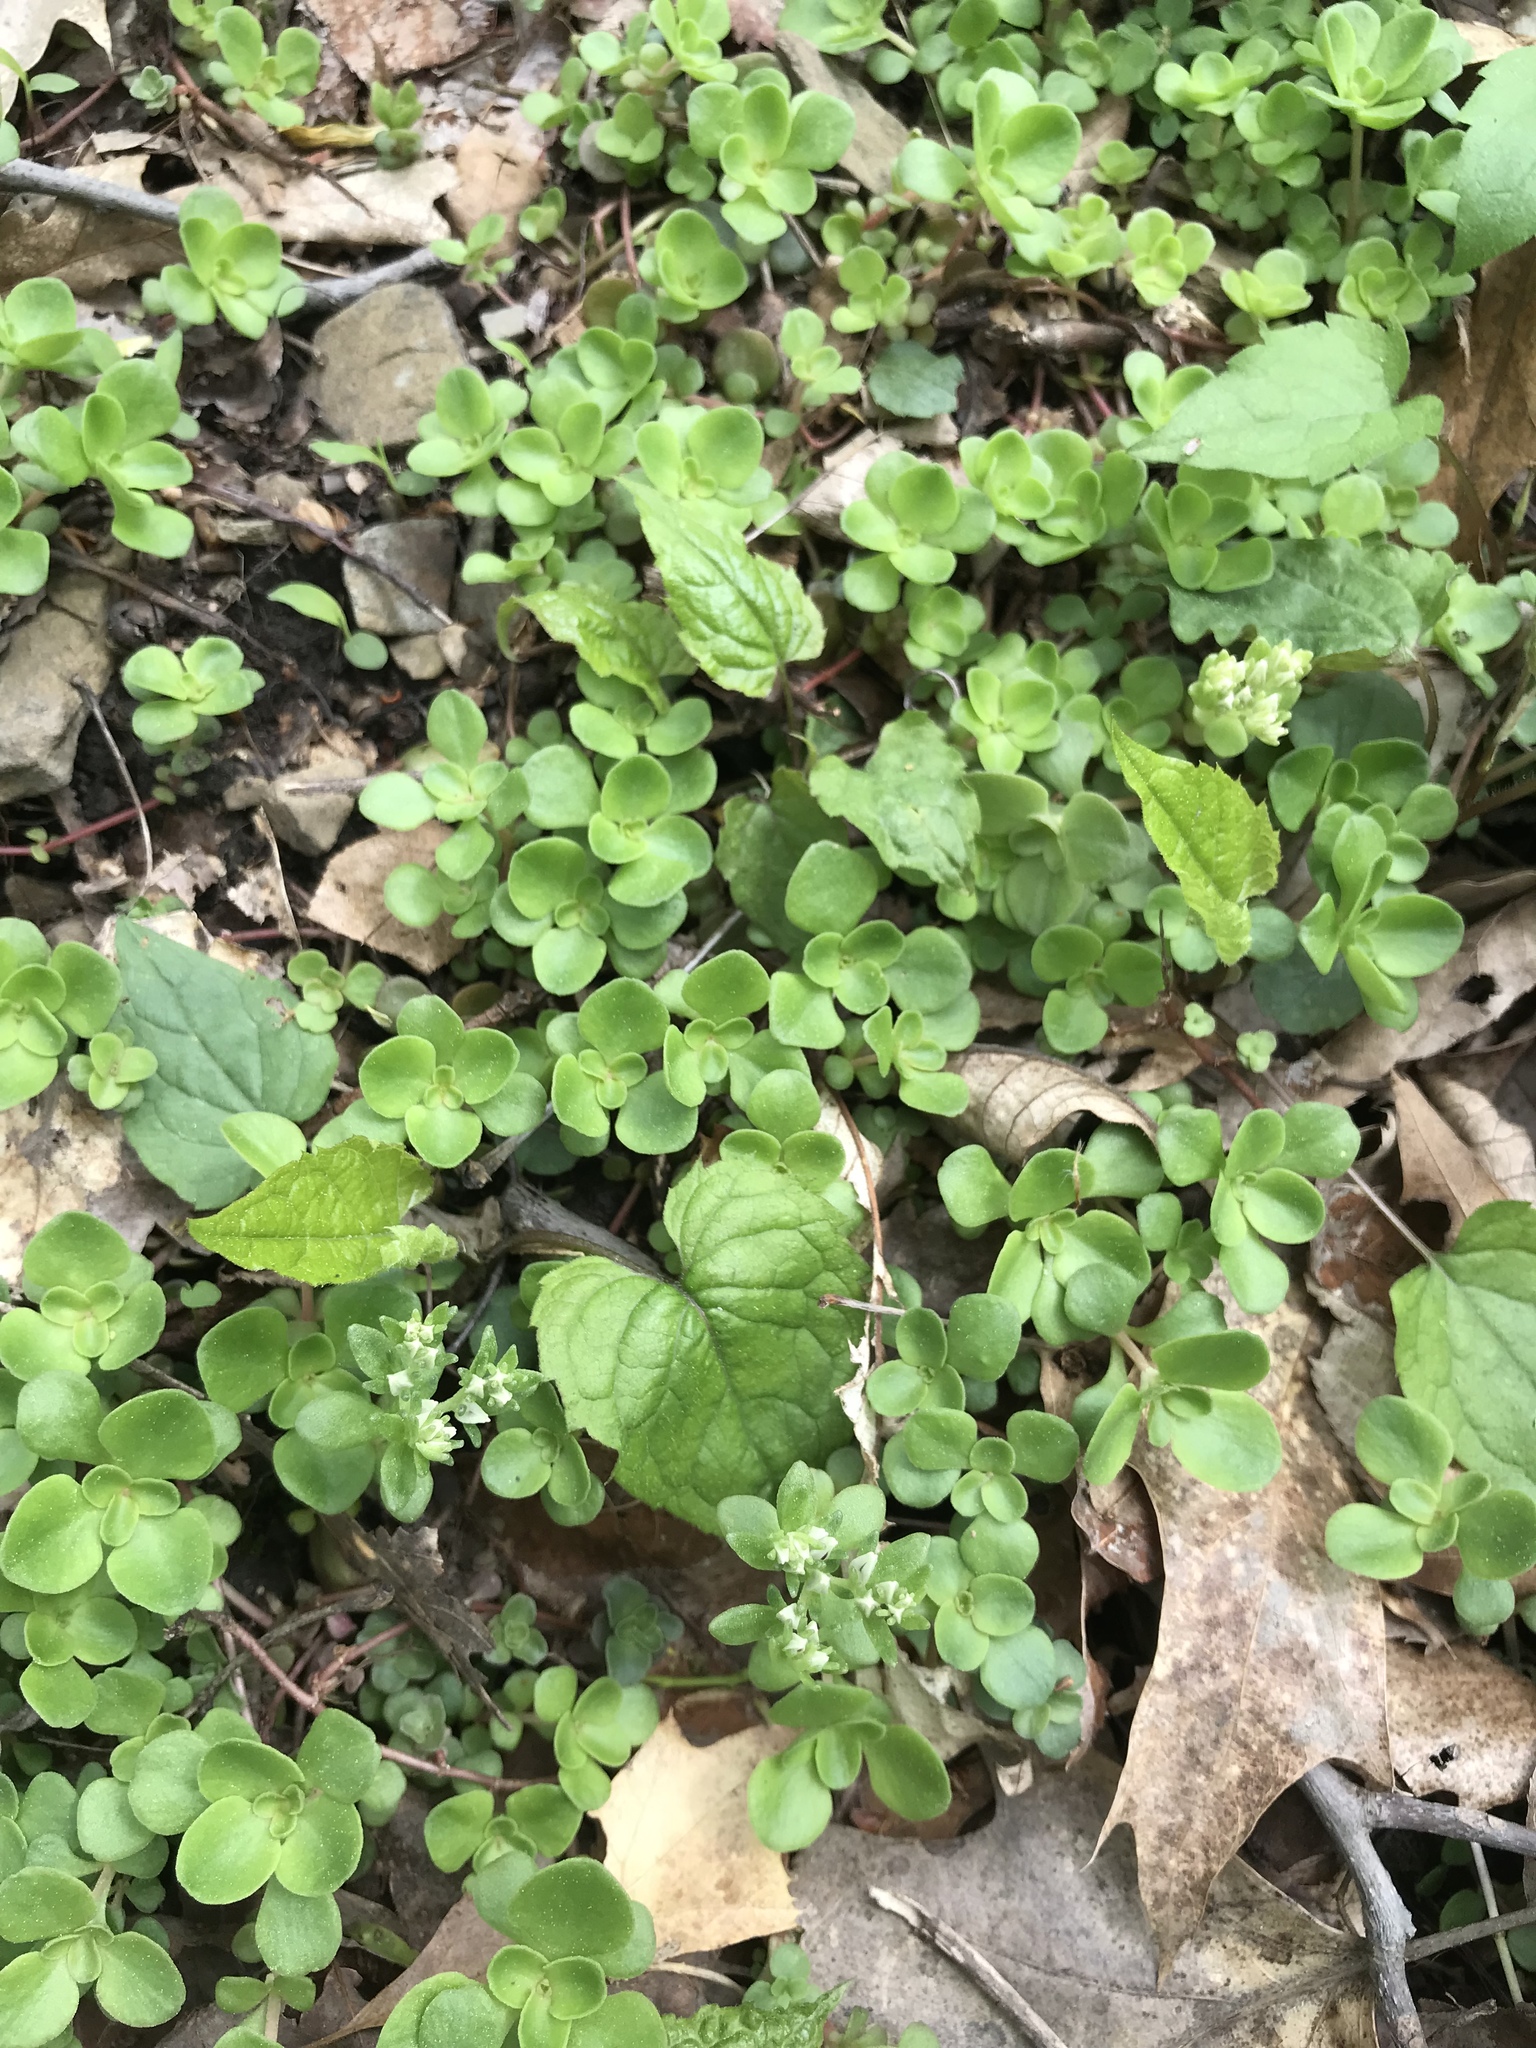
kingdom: Plantae
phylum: Tracheophyta
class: Magnoliopsida
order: Saxifragales
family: Crassulaceae
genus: Sedum
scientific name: Sedum ternatum
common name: Wild stonecrop
